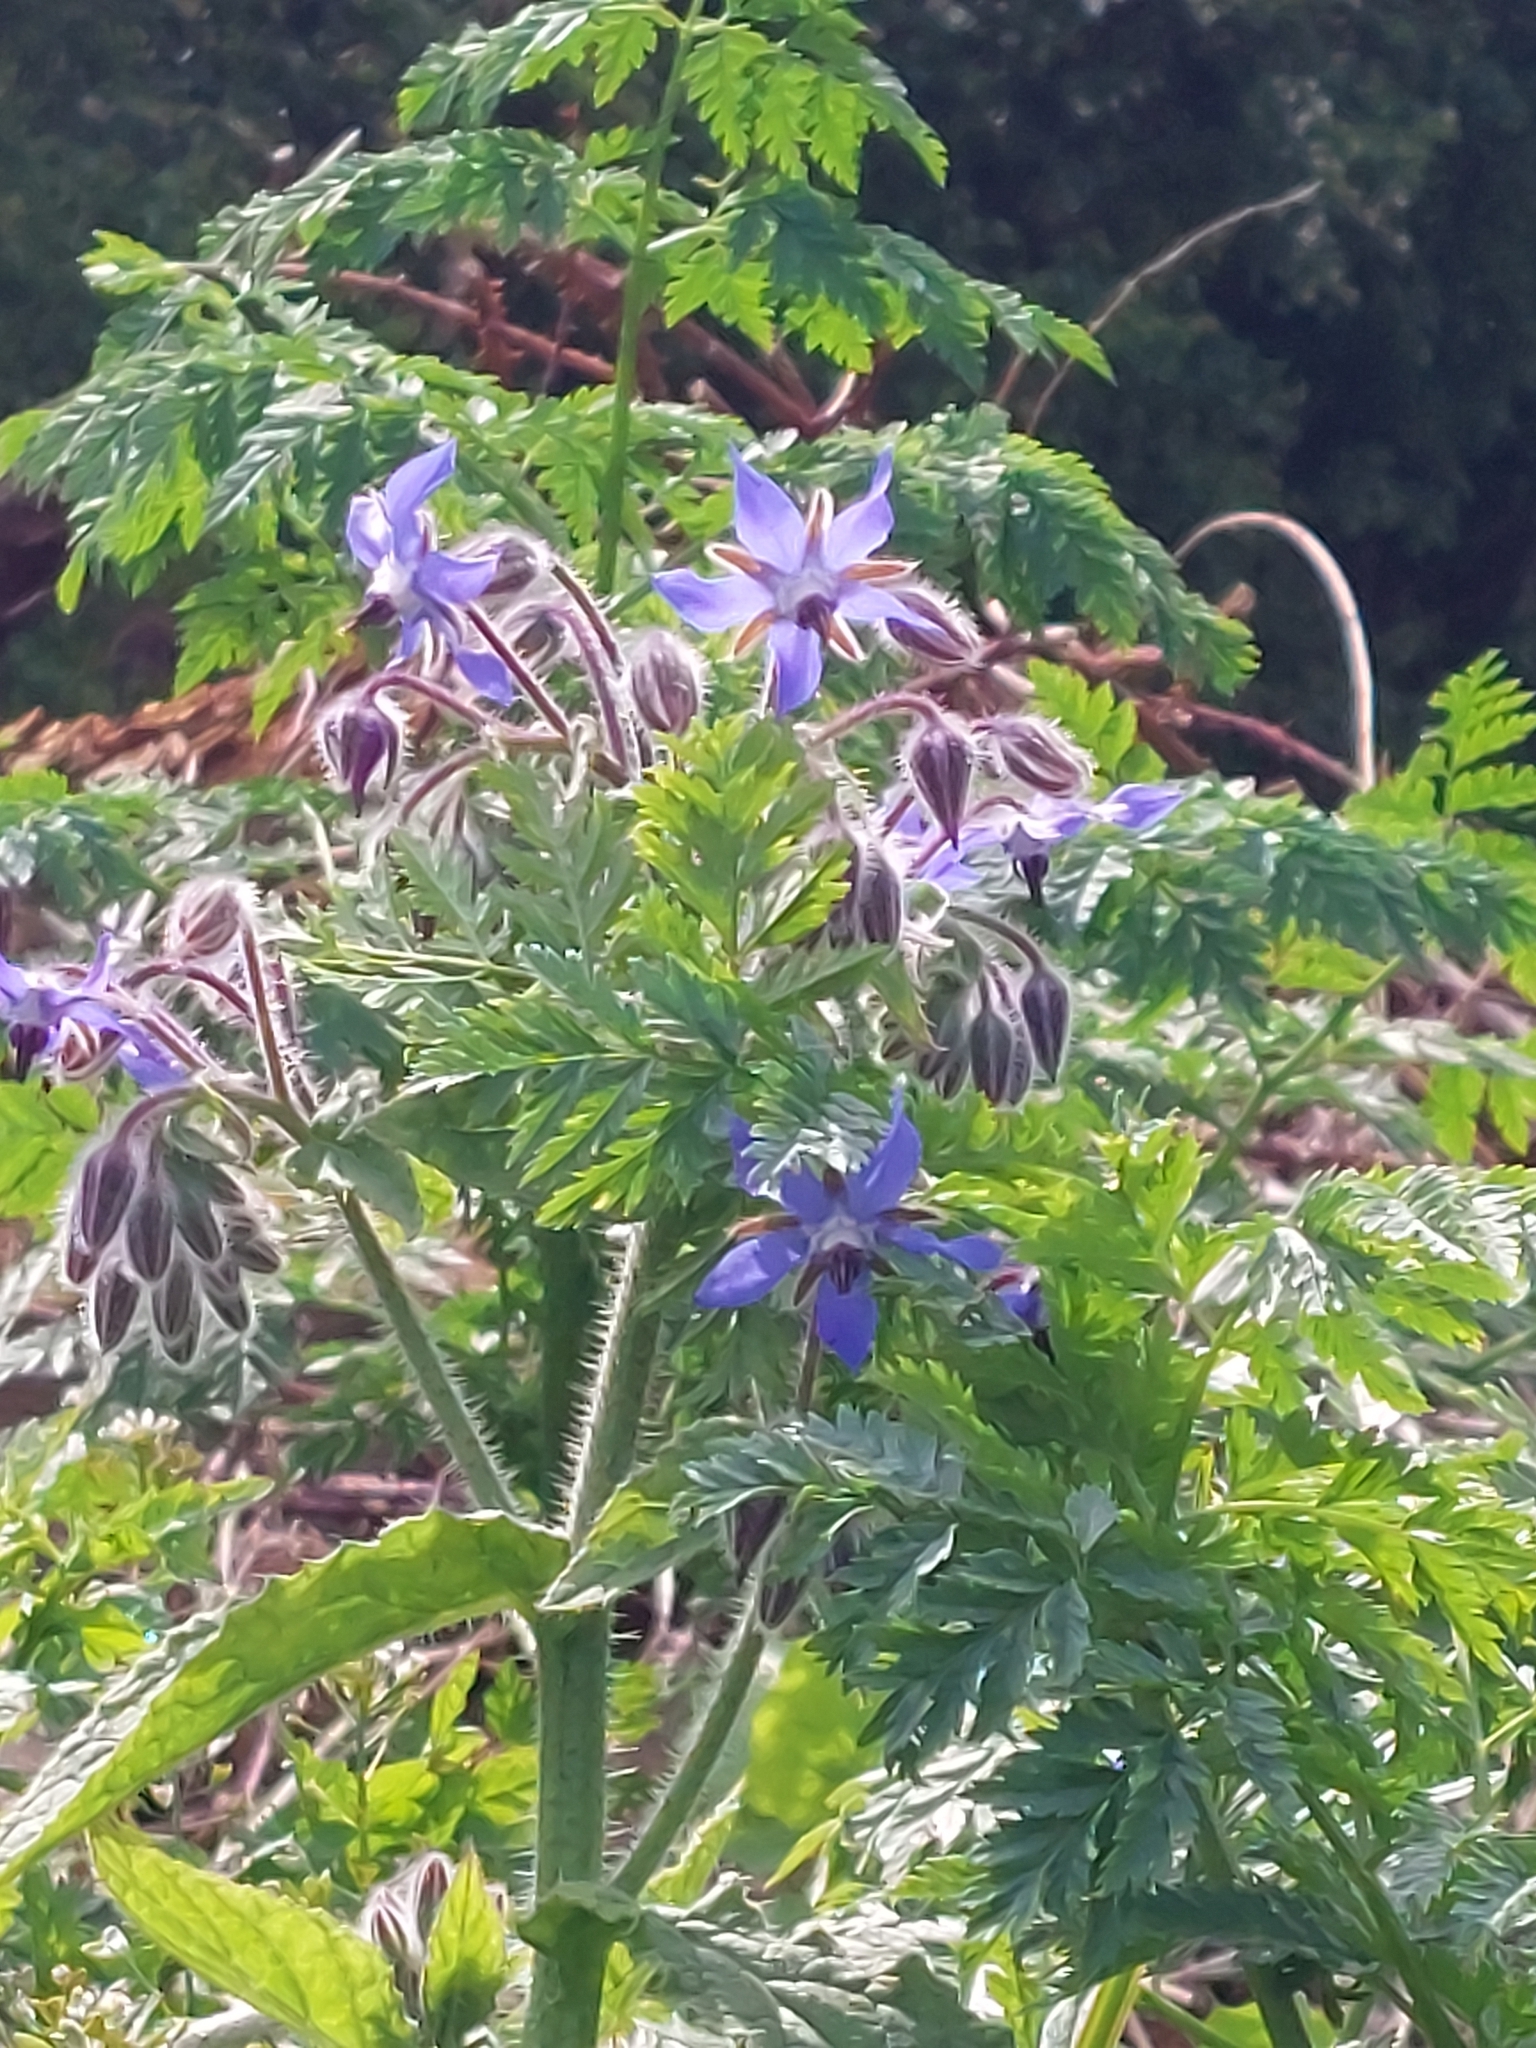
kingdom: Plantae
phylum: Tracheophyta
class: Magnoliopsida
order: Boraginales
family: Boraginaceae
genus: Borago
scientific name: Borago officinalis
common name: Borage
